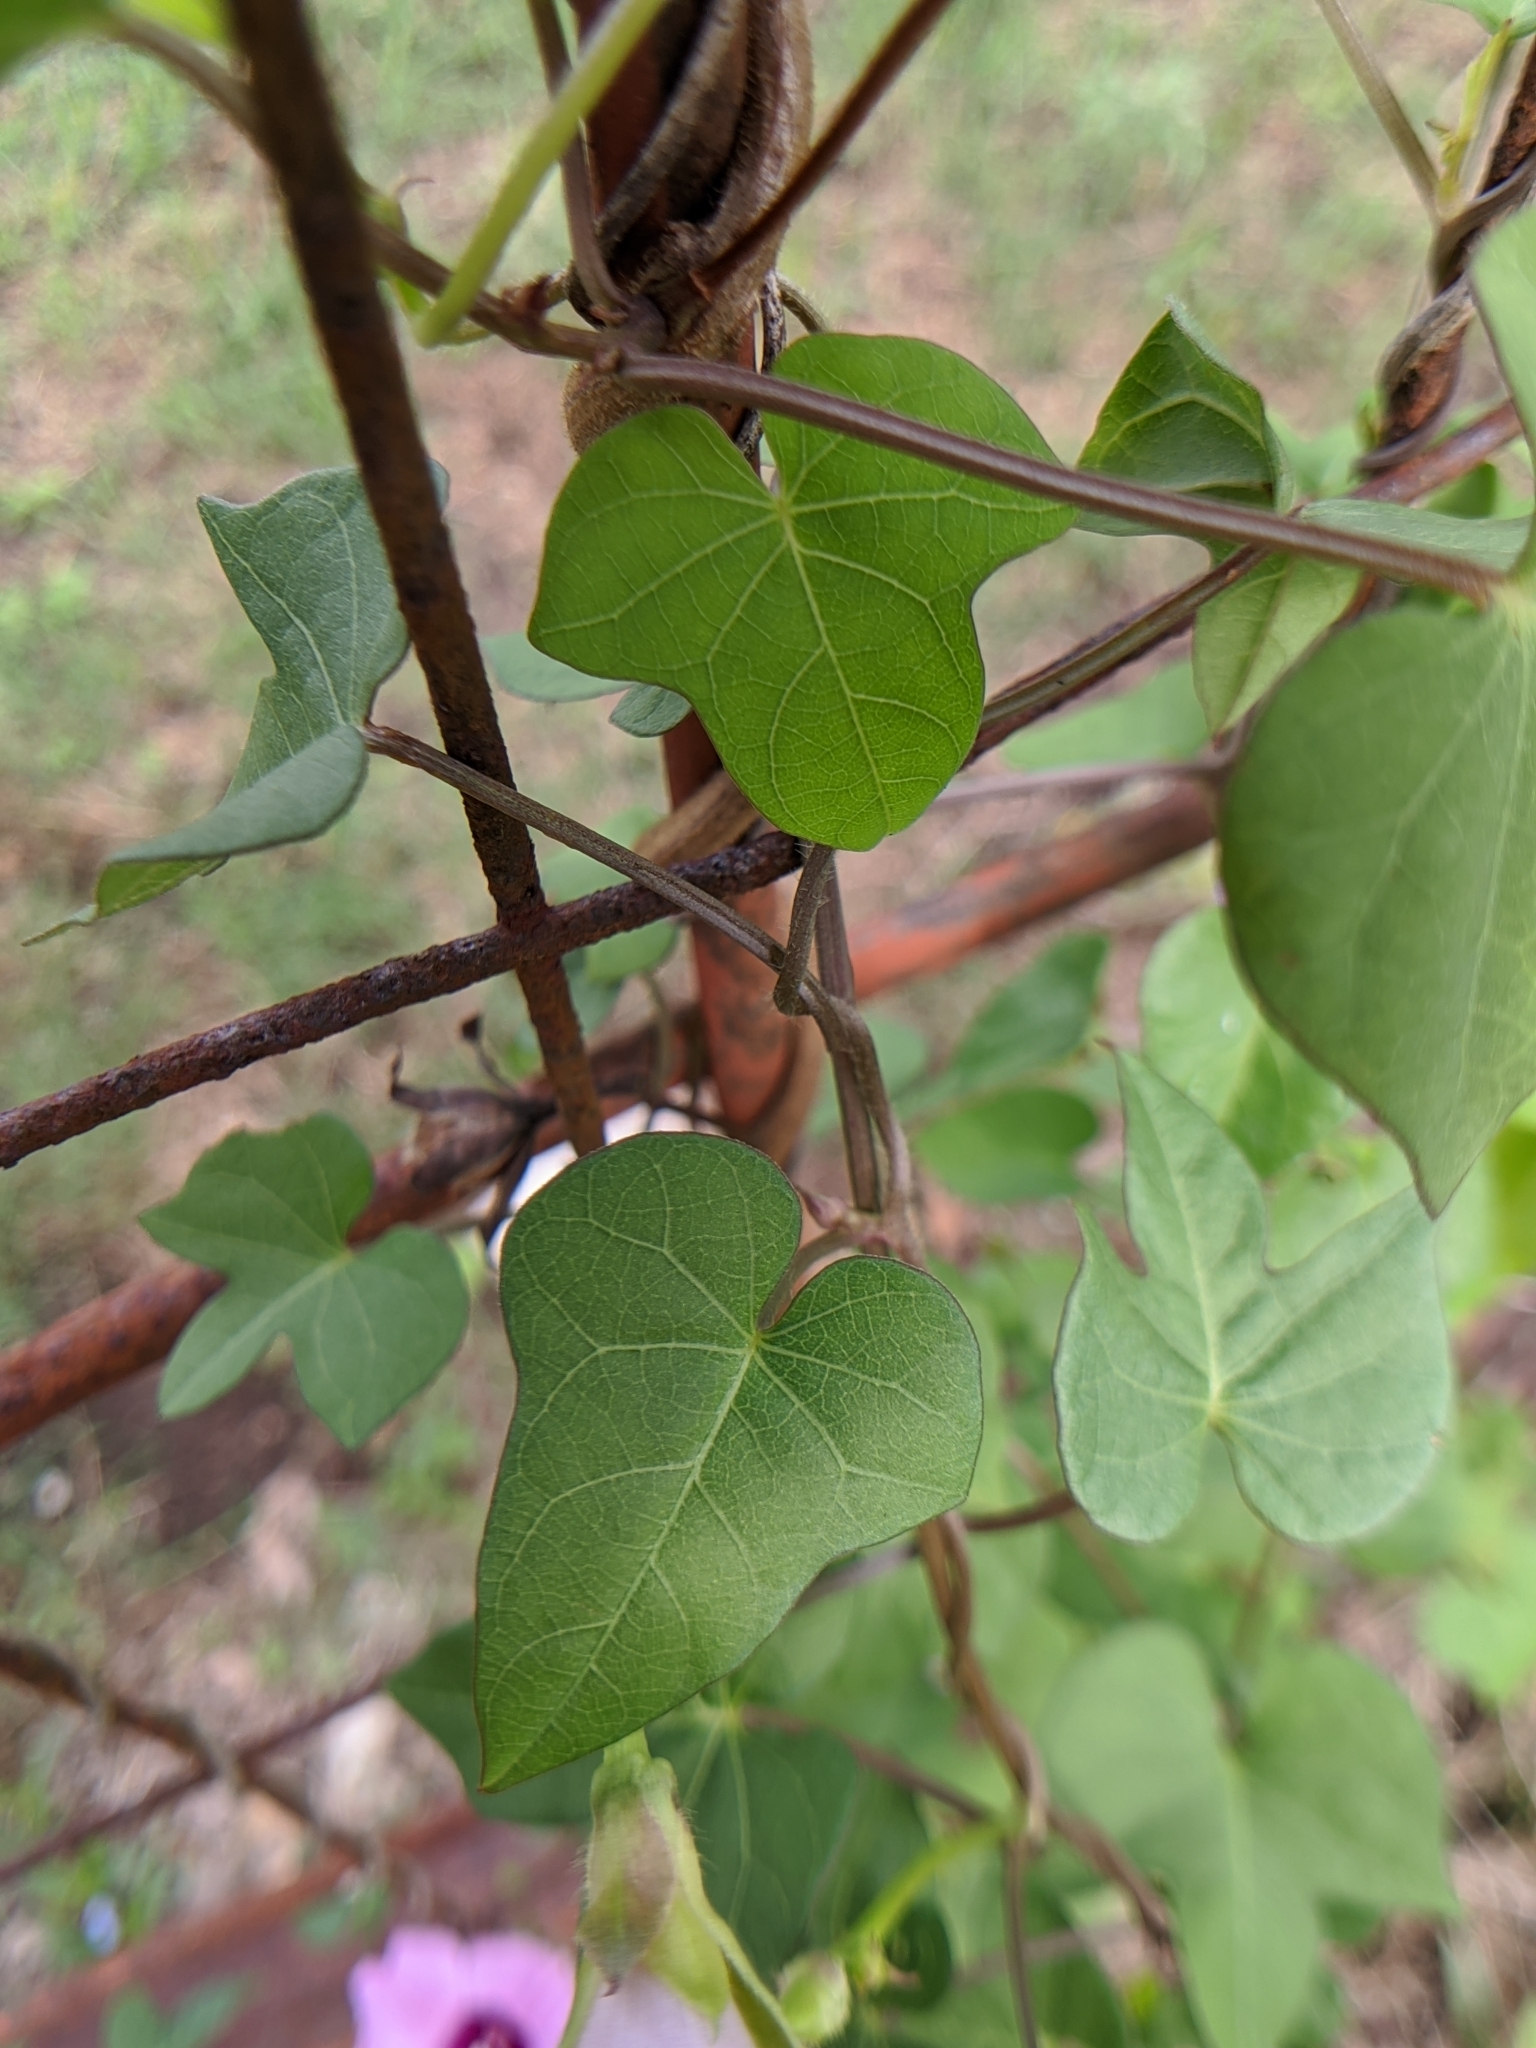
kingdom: Plantae
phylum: Tracheophyta
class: Magnoliopsida
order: Solanales
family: Convolvulaceae
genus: Ipomoea
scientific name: Ipomoea cordatotriloba
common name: Cotton morning glory
